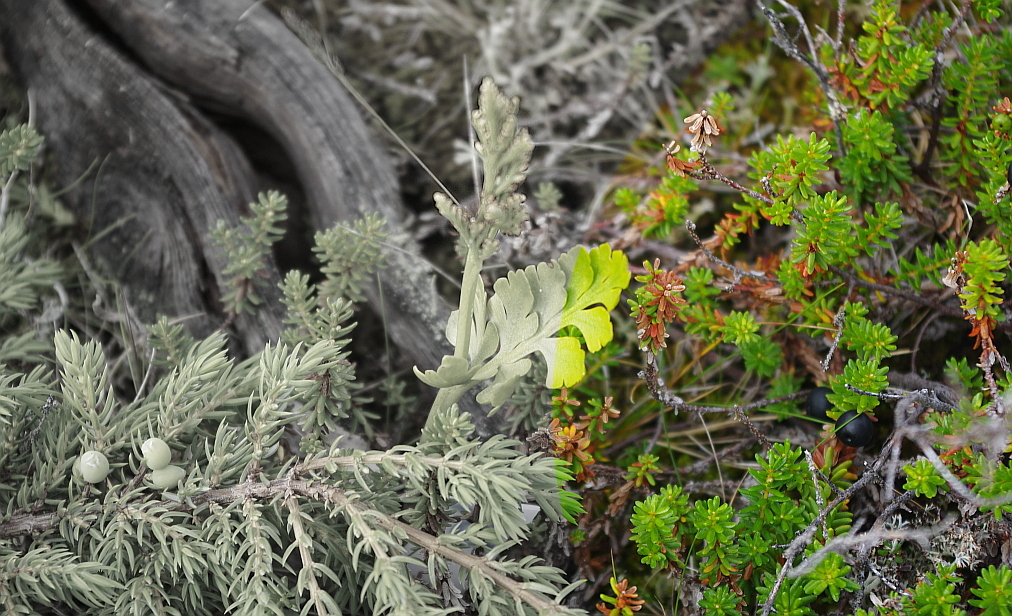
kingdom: Plantae
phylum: Tracheophyta
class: Magnoliopsida
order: Ericales
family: Ericaceae
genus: Empetrum
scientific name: Empetrum nigrum
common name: Black crowberry
